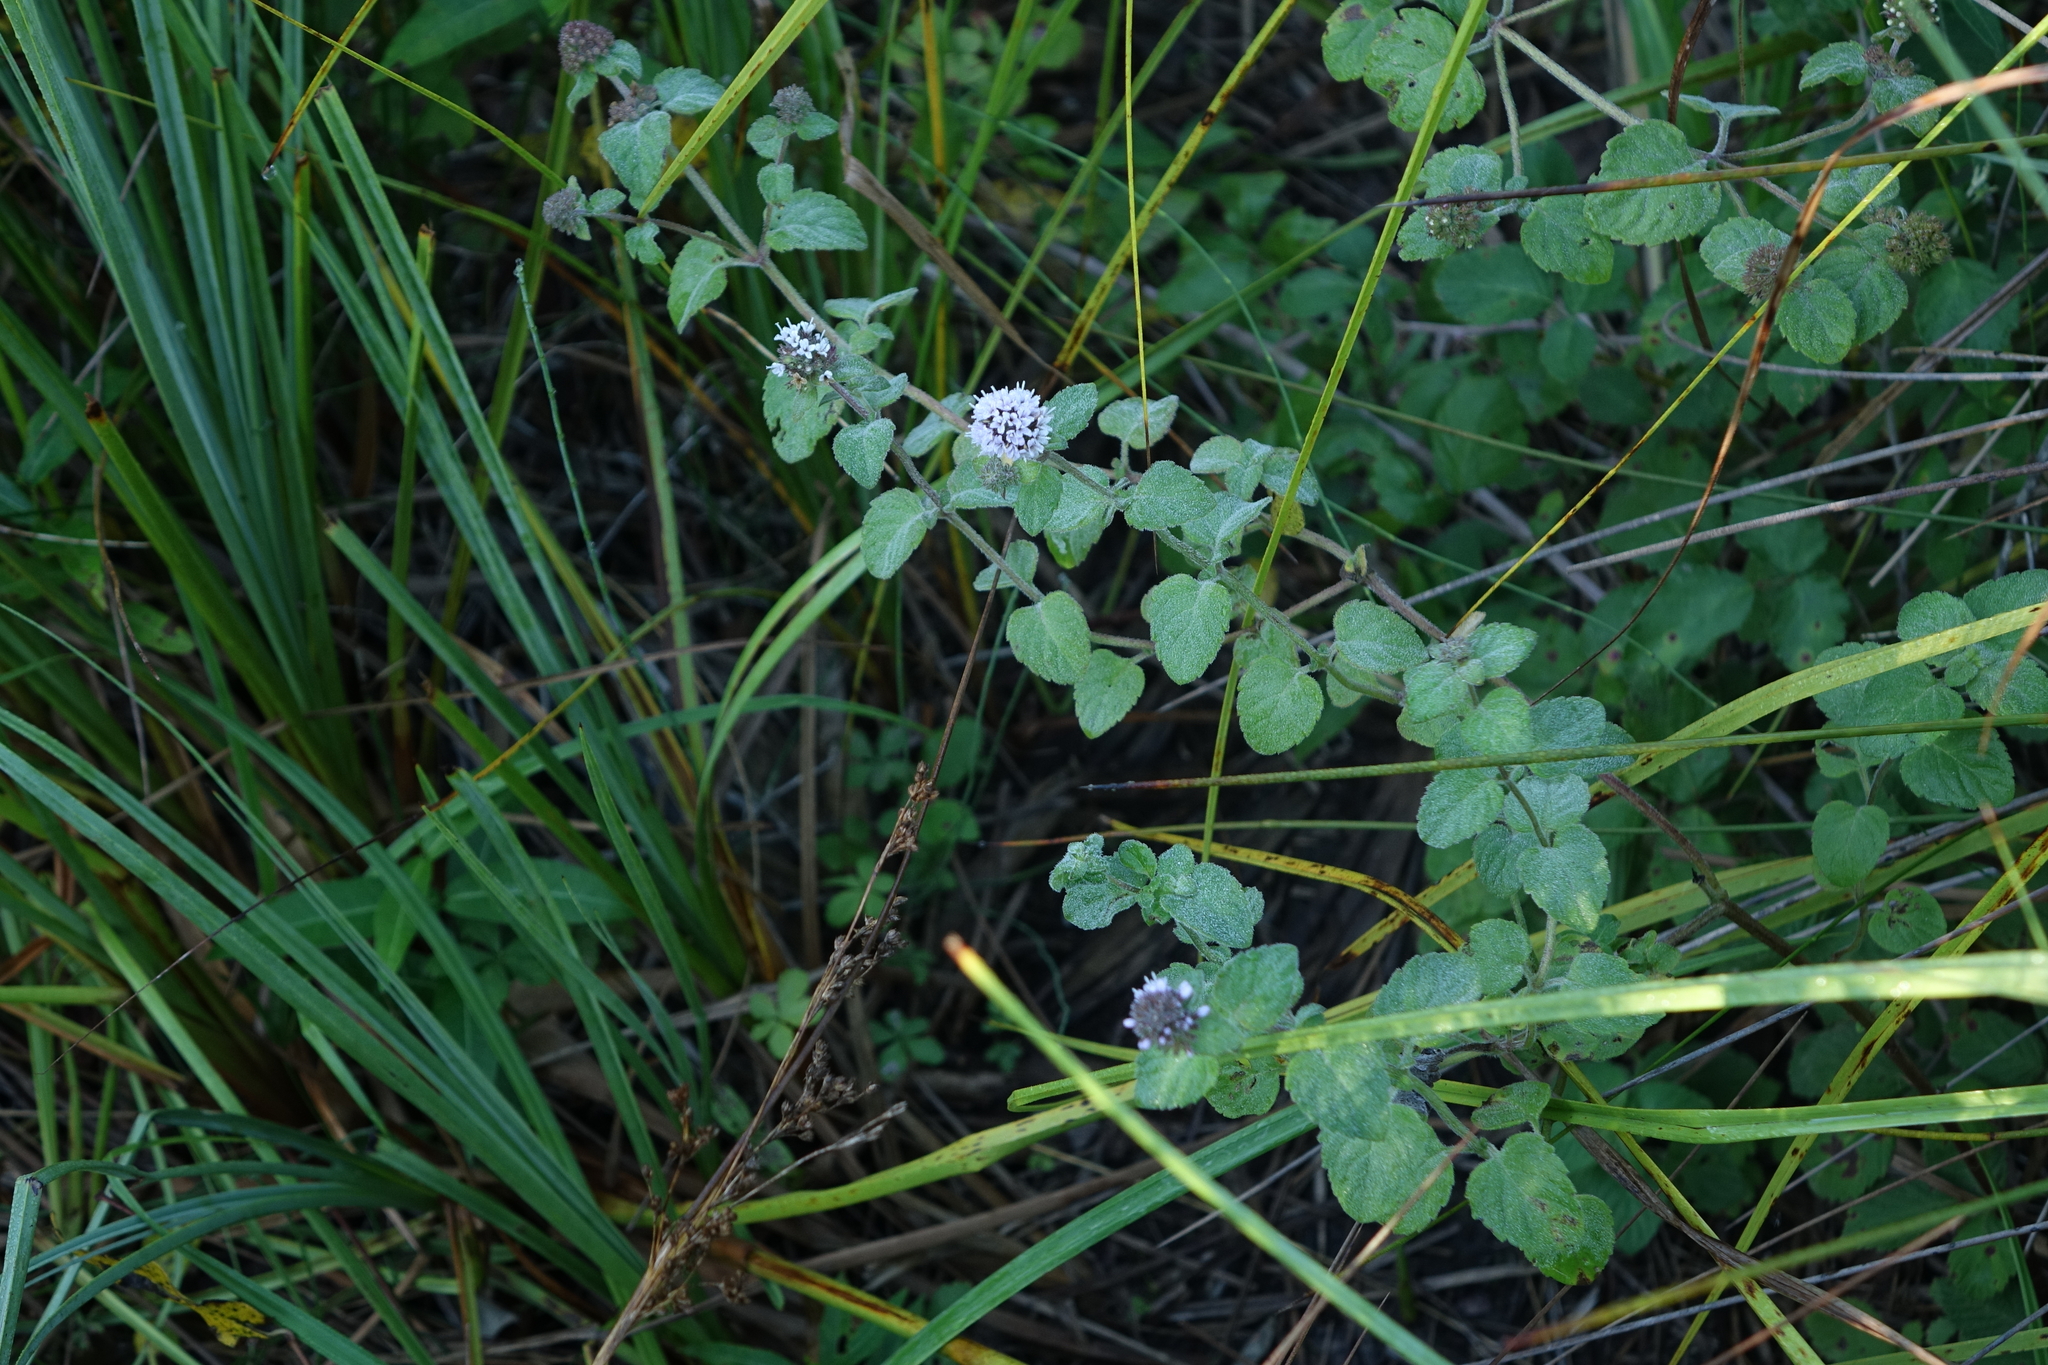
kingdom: Plantae
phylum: Tracheophyta
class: Magnoliopsida
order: Lamiales
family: Lamiaceae
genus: Mentha
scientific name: Mentha arvensis
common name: Corn mint
